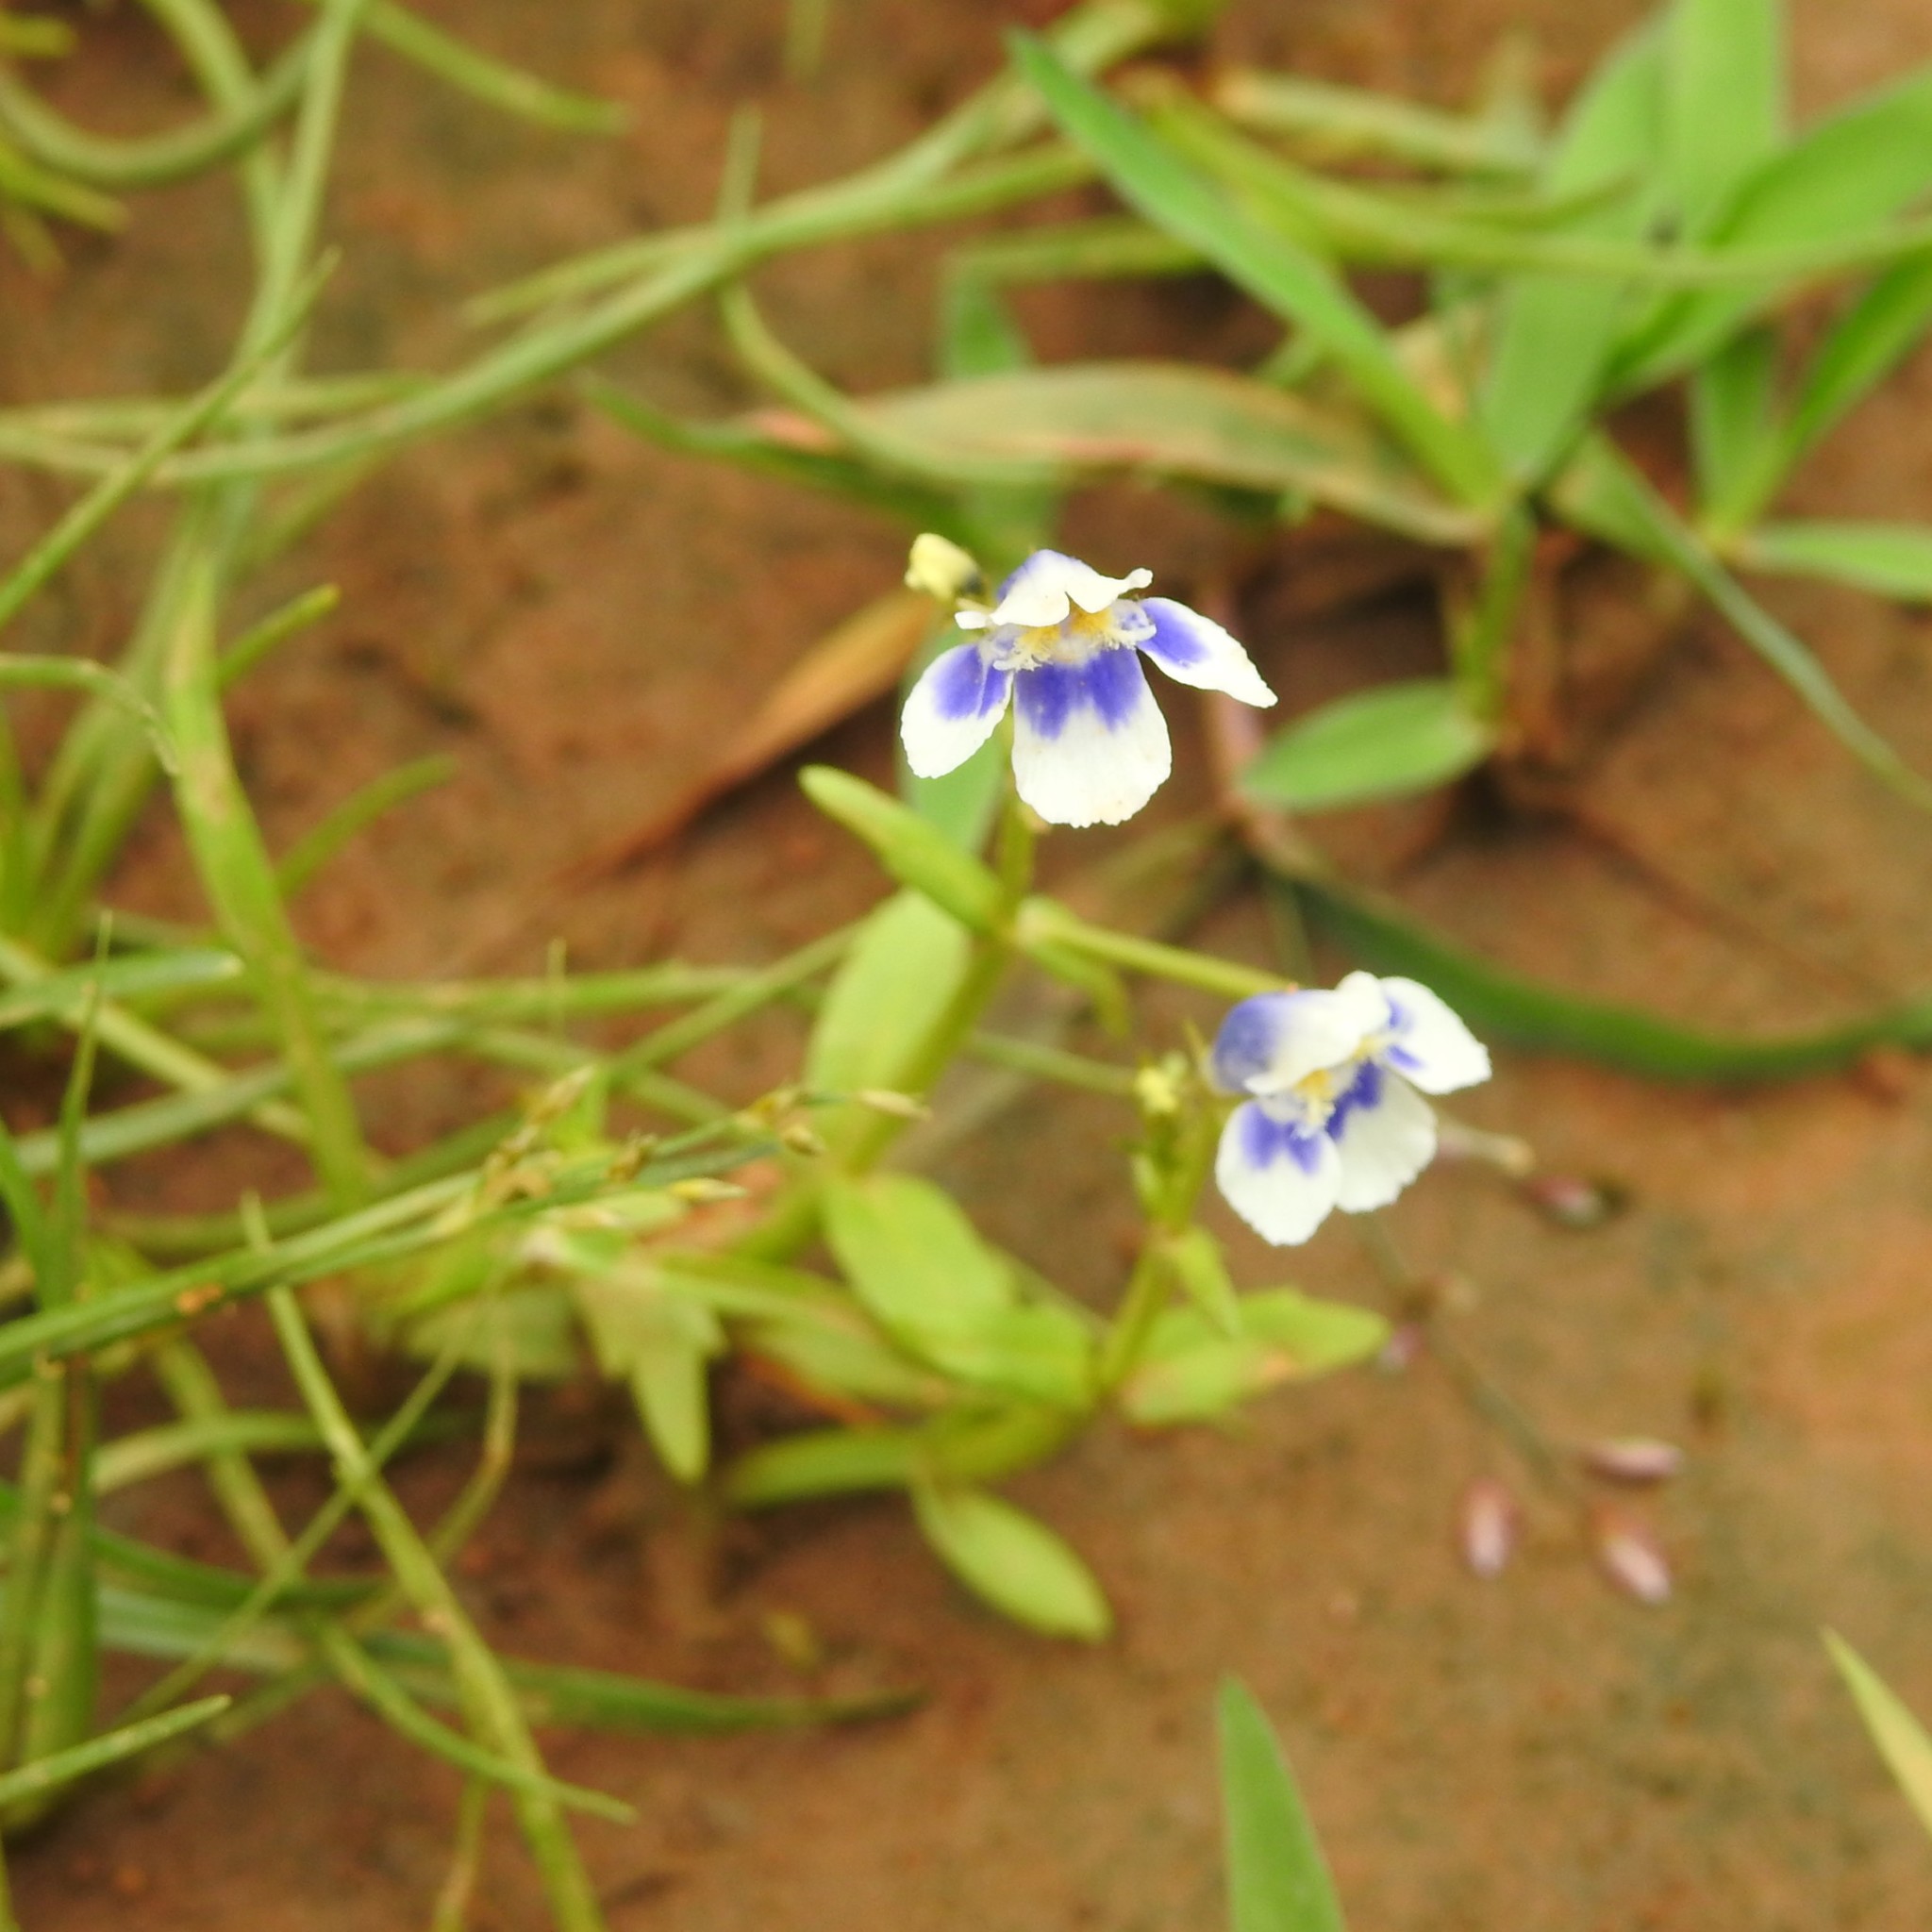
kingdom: Plantae
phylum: Tracheophyta
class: Magnoliopsida
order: Lamiales
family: Linderniaceae
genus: Lindernia
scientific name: Lindernia hyssopioides
